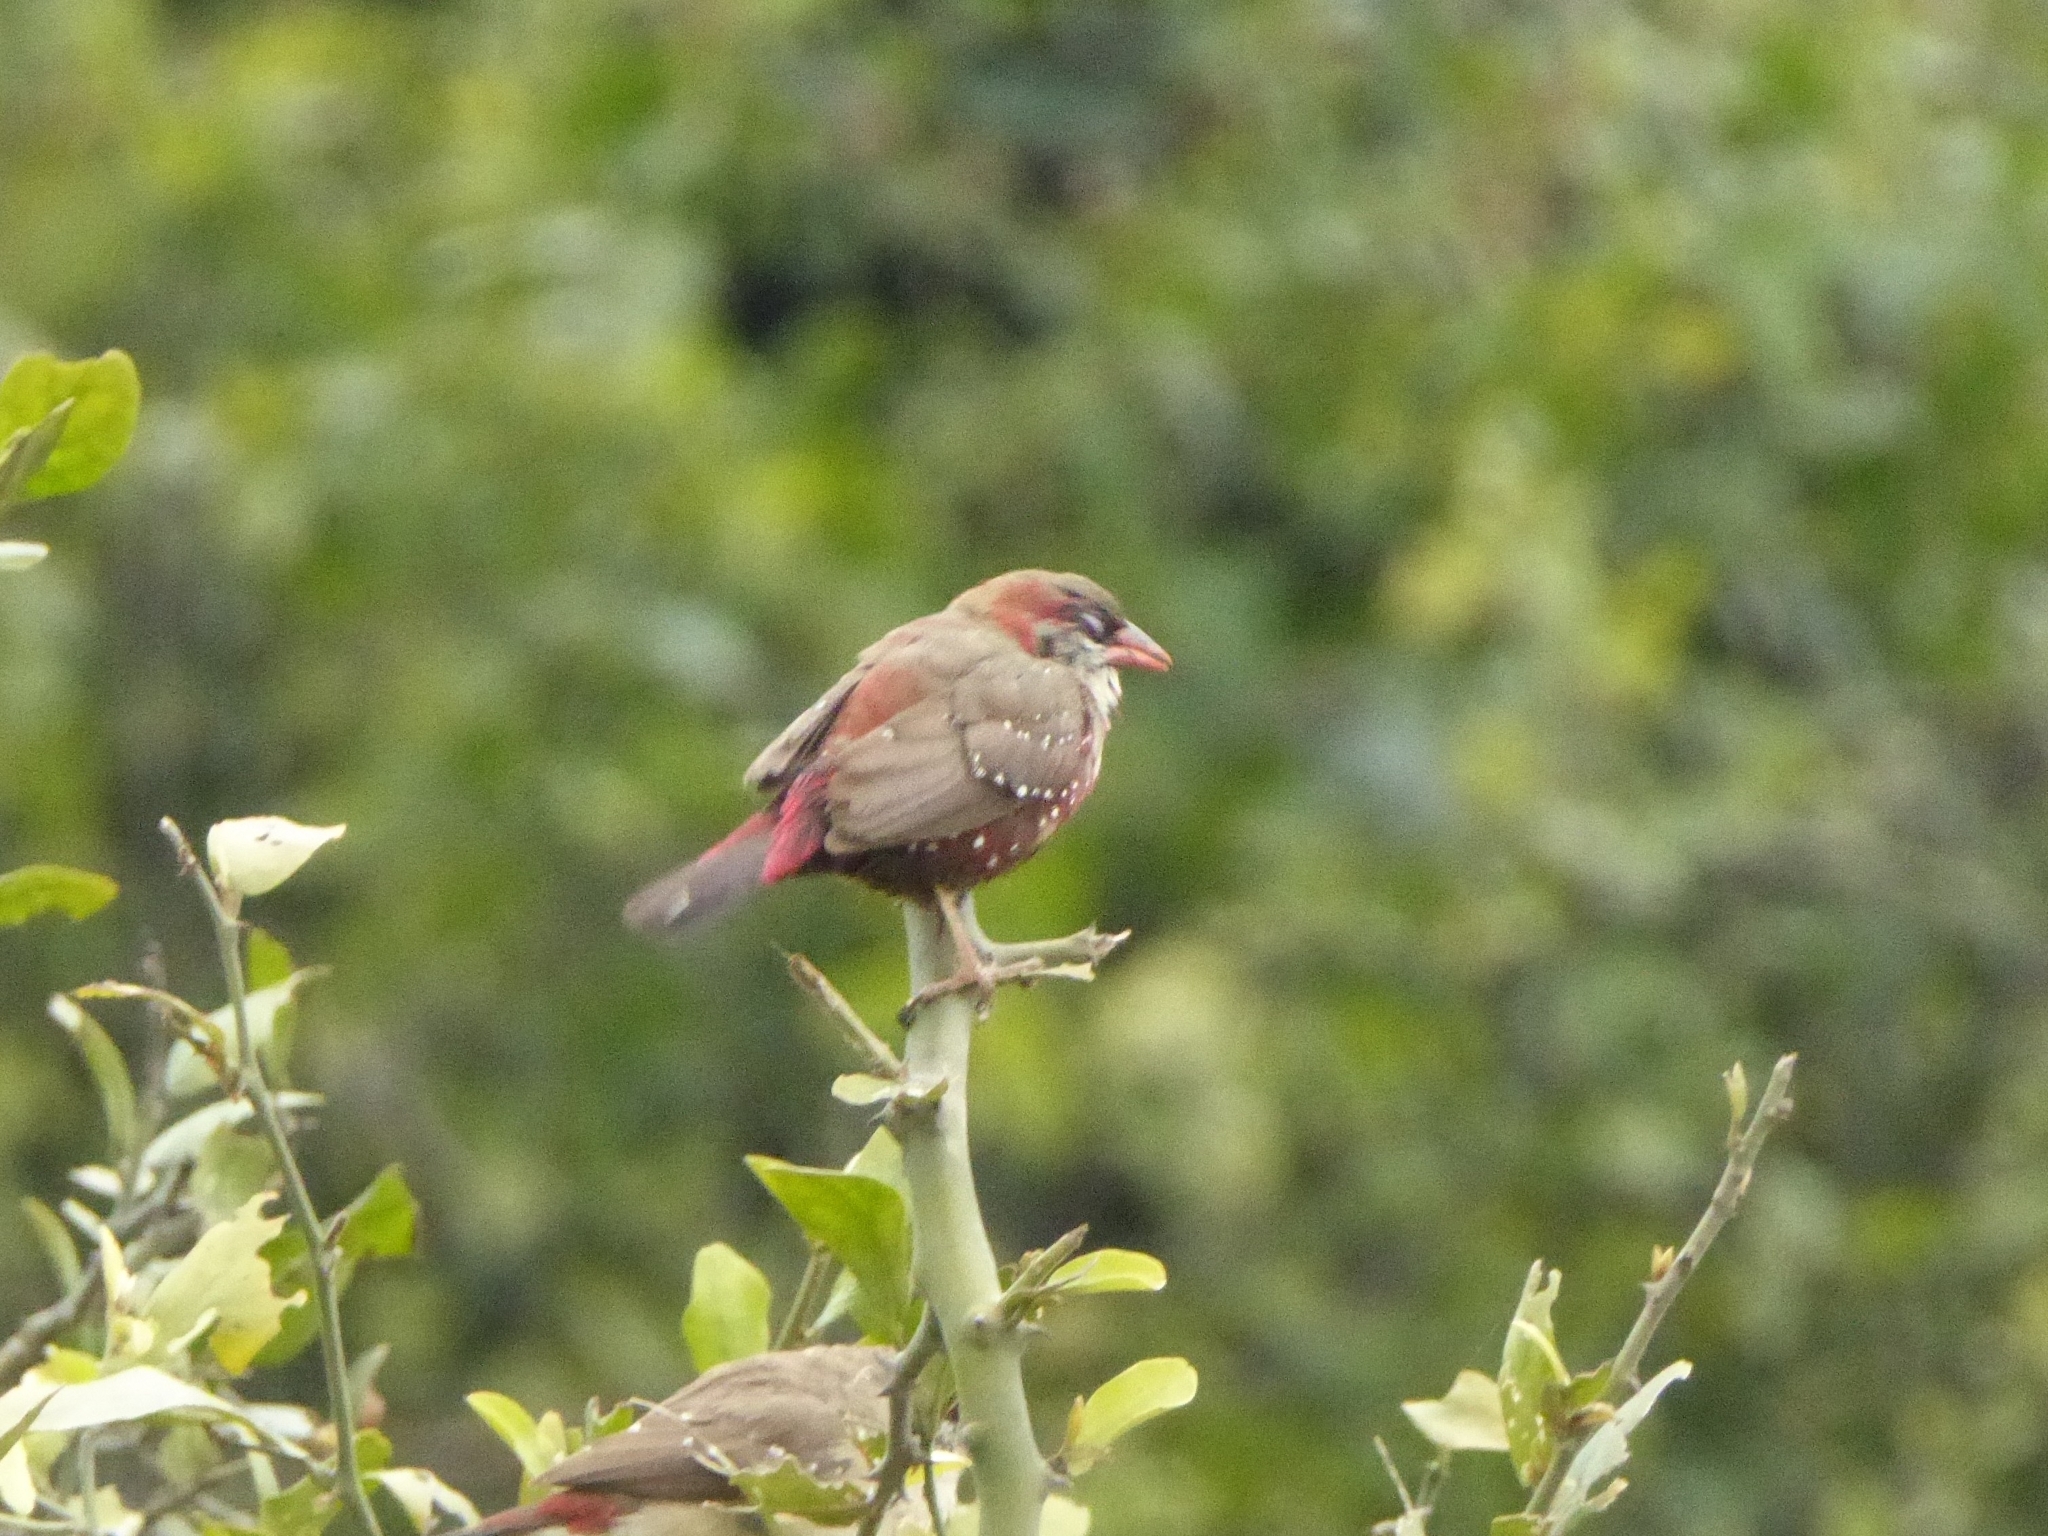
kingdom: Animalia
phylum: Chordata
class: Aves
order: Passeriformes
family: Estrildidae
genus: Amandava
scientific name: Amandava amandava
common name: Red avadavat
